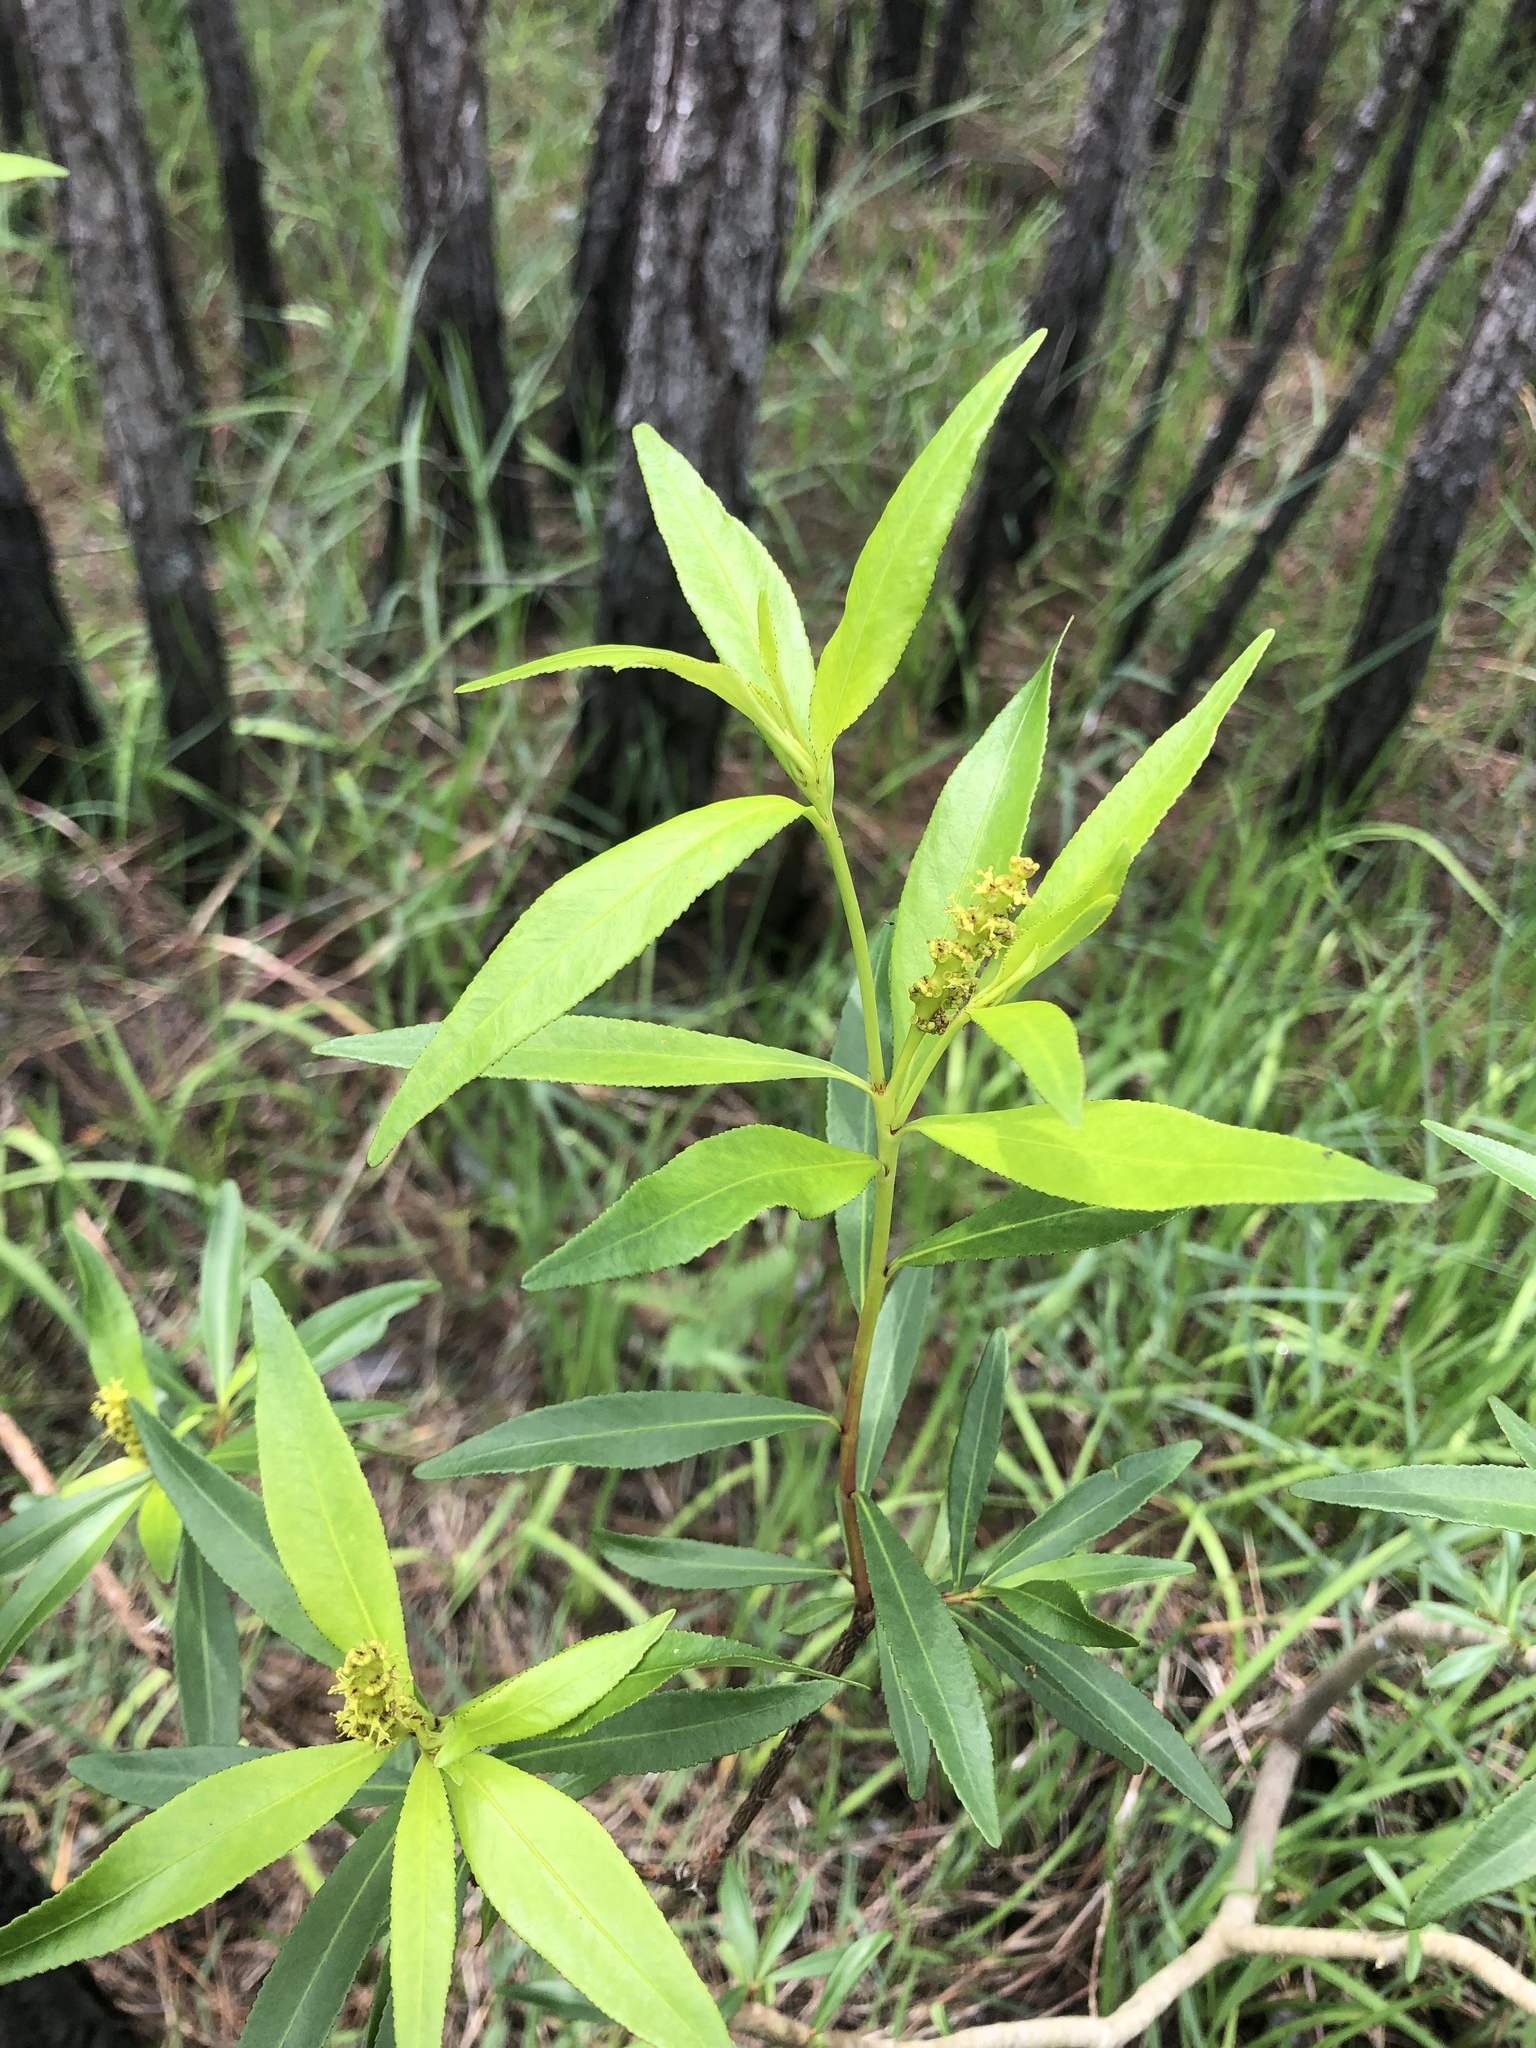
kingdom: Plantae
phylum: Tracheophyta
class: Magnoliopsida
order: Malpighiales
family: Euphorbiaceae
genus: Stillingia
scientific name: Stillingia aquatica
